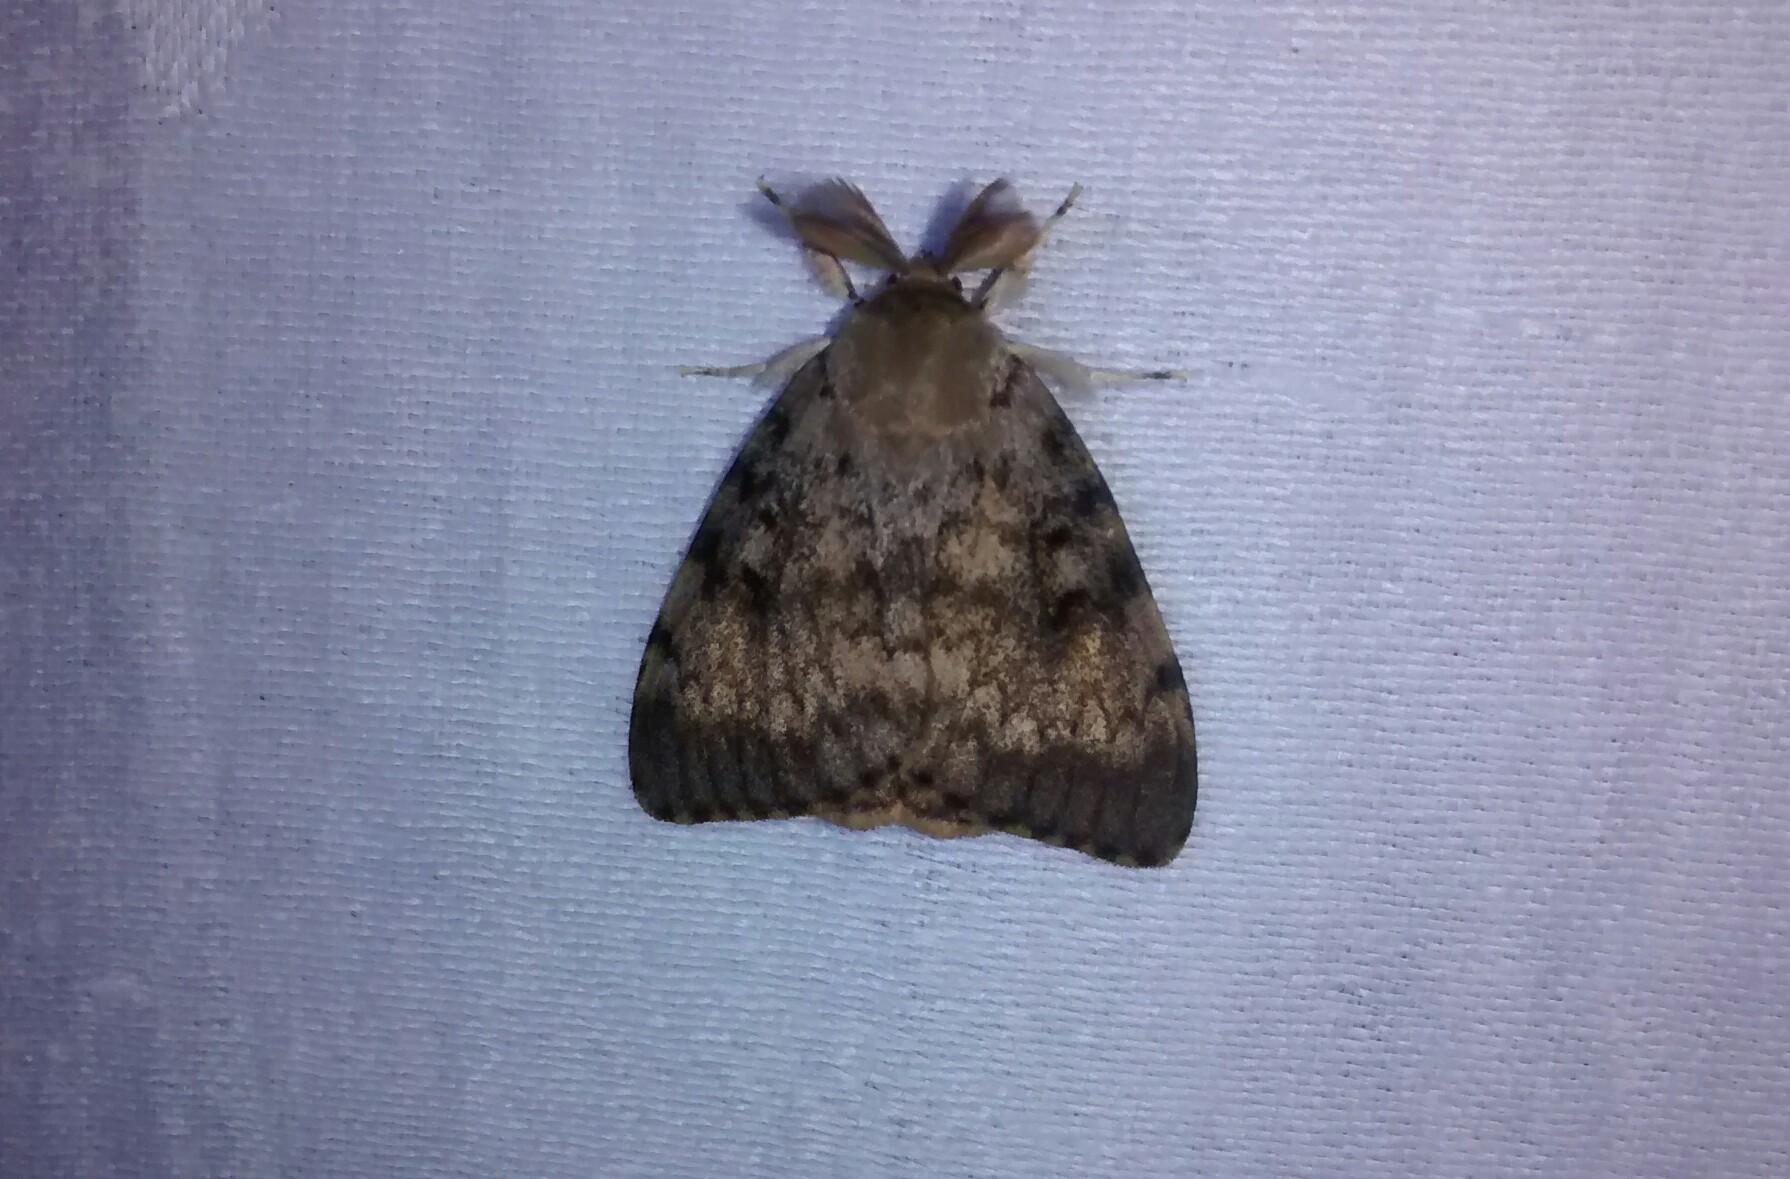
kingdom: Animalia
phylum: Arthropoda
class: Insecta
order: Lepidoptera
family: Erebidae
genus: Lymantria
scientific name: Lymantria dispar
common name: Gypsy moth
